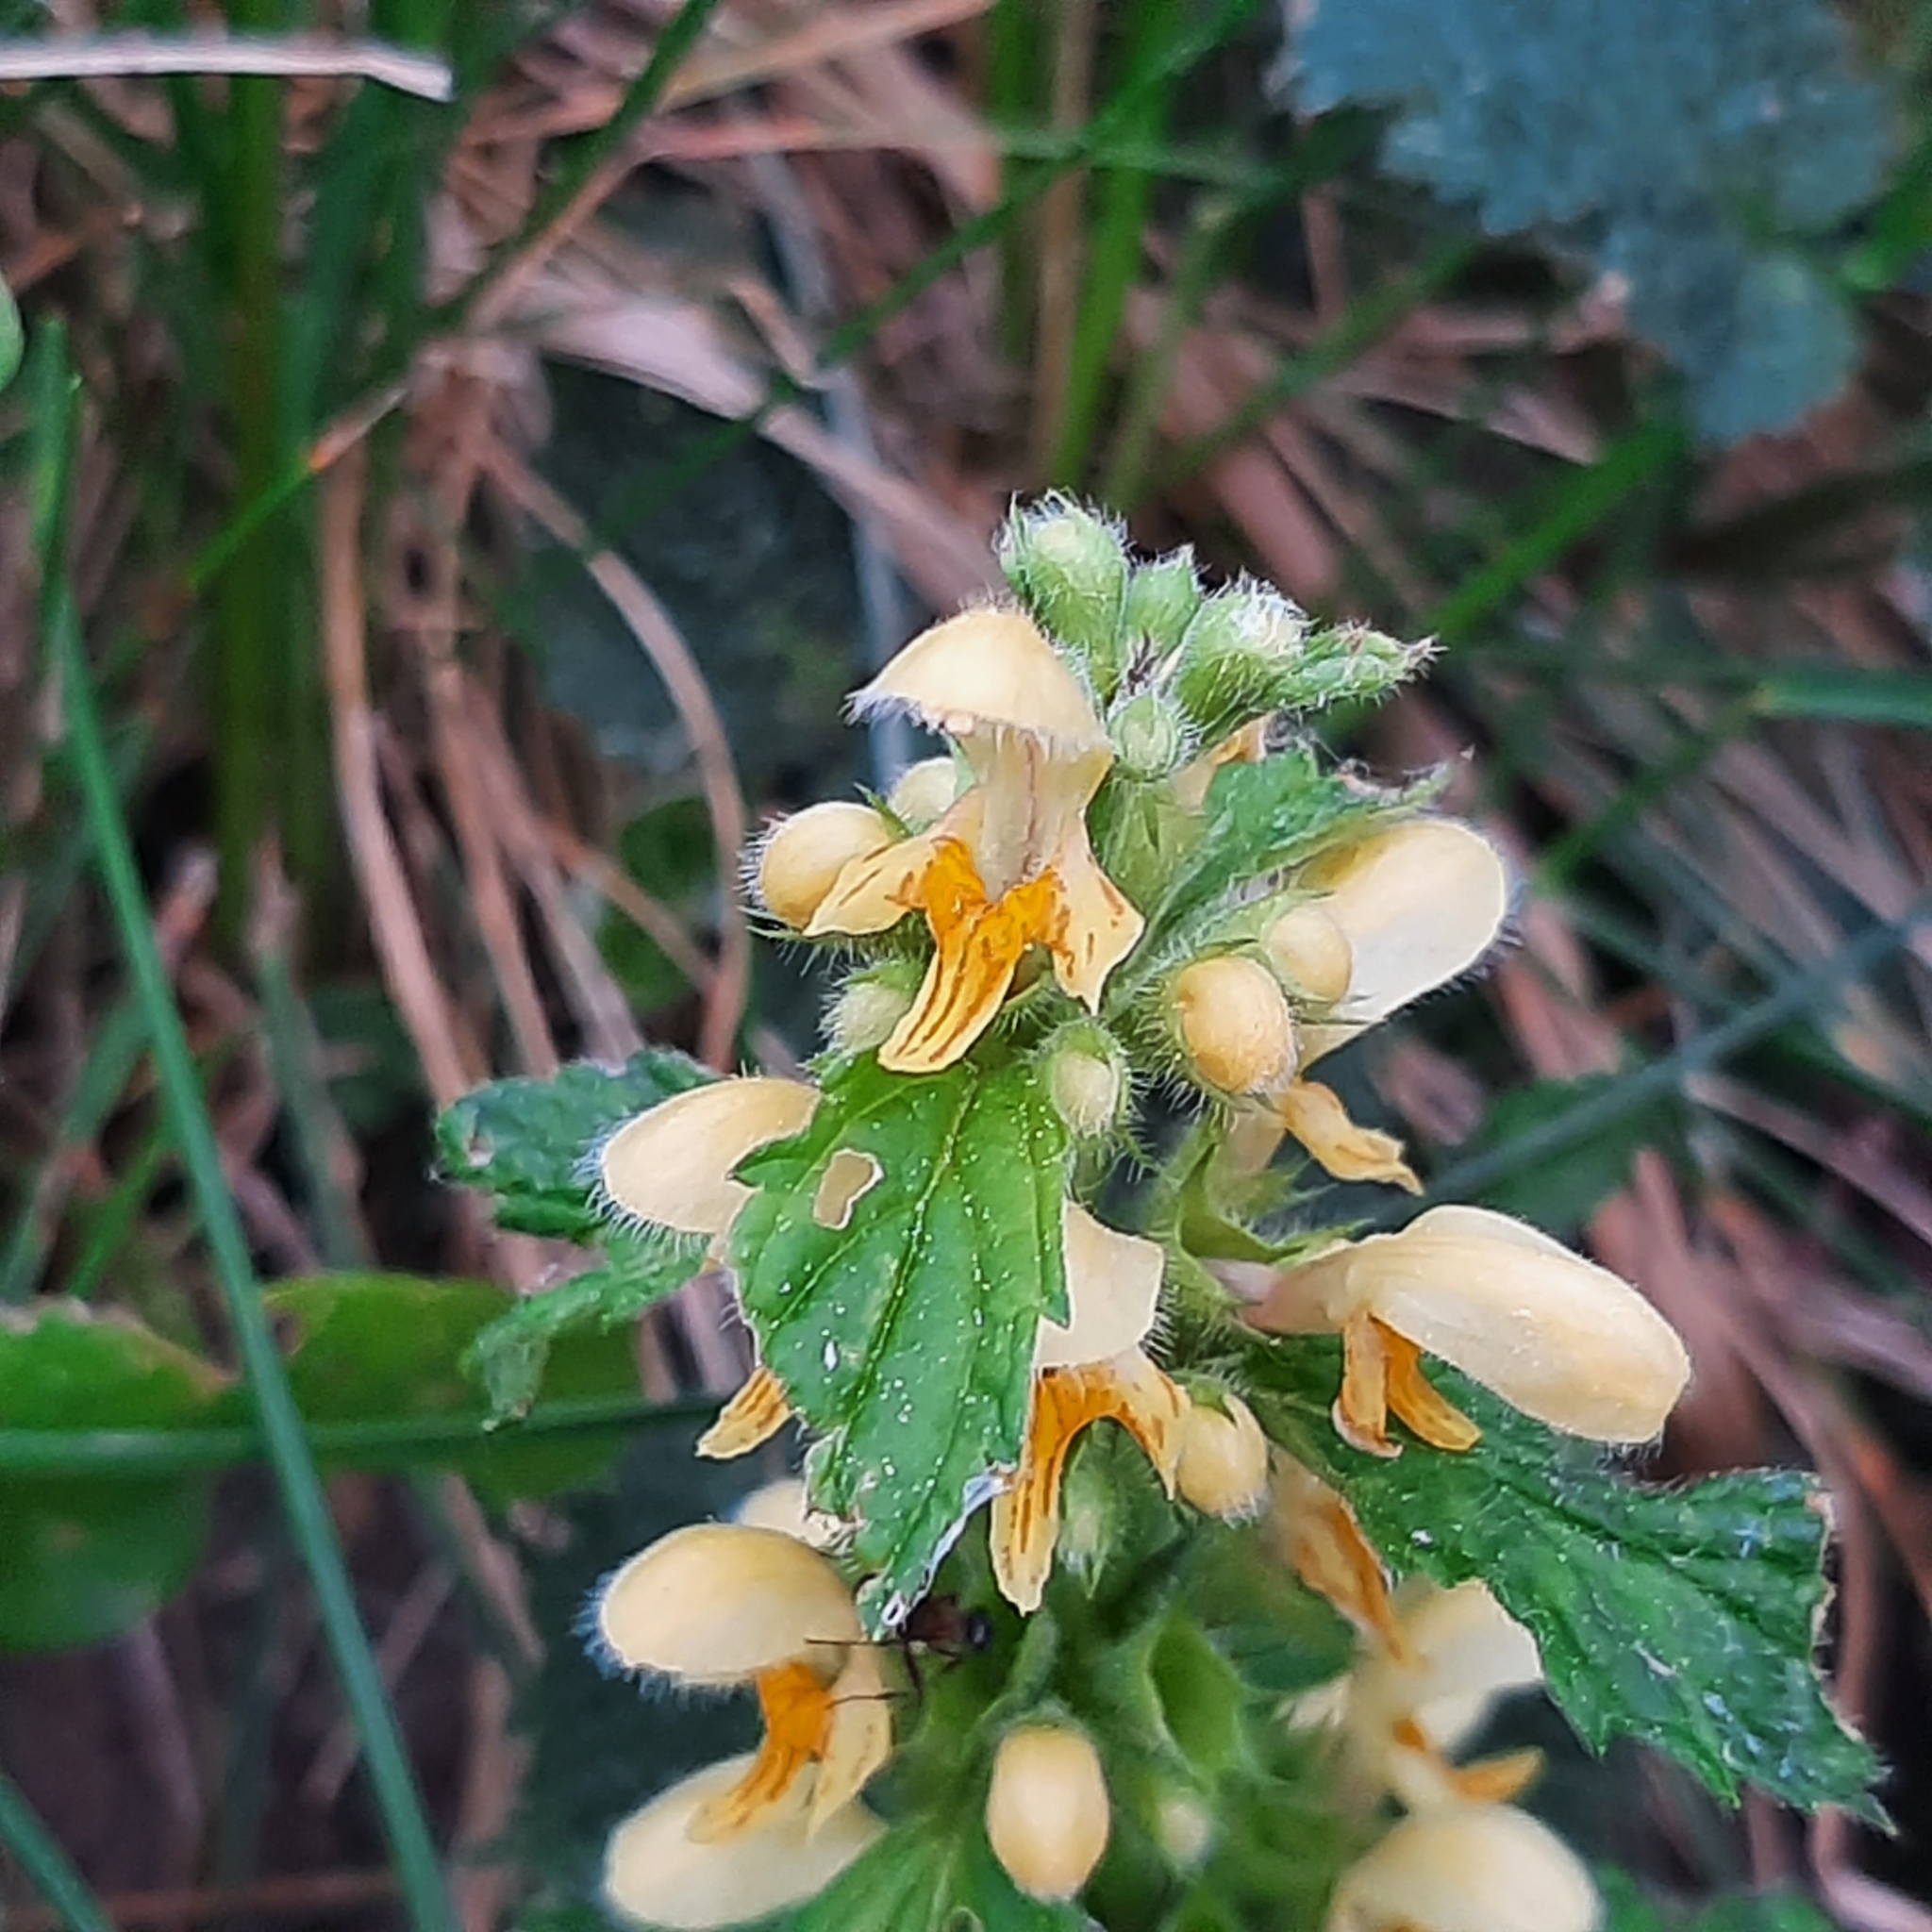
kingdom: Plantae
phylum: Tracheophyta
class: Magnoliopsida
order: Lamiales
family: Lamiaceae
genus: Lamium
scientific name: Lamium galeobdolon
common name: Yellow archangel
